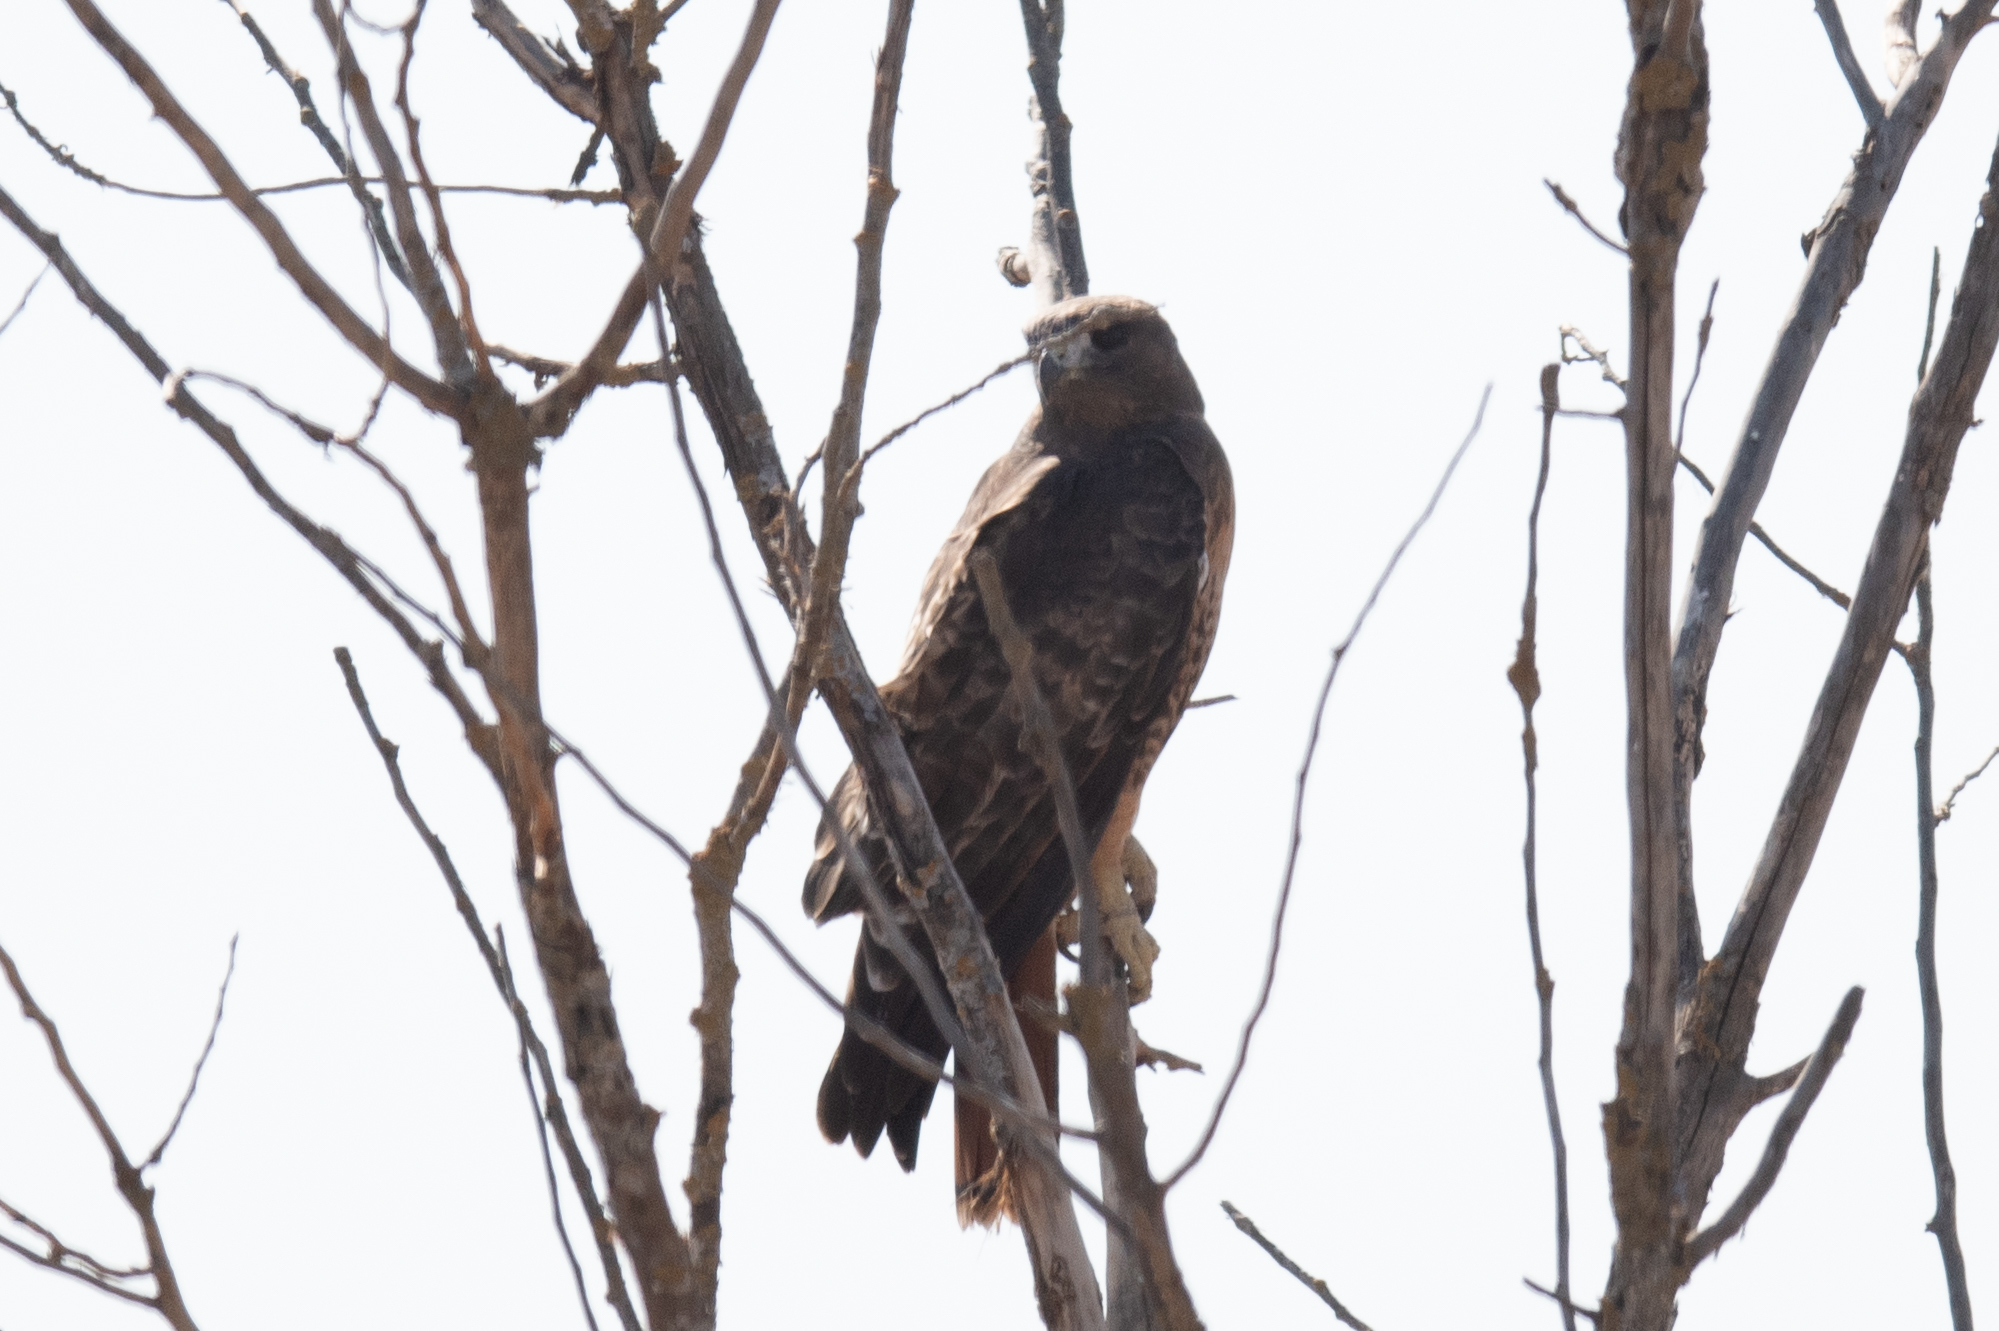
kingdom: Animalia
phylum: Chordata
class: Aves
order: Accipitriformes
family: Accipitridae
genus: Buteo
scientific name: Buteo jamaicensis
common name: Red-tailed hawk
